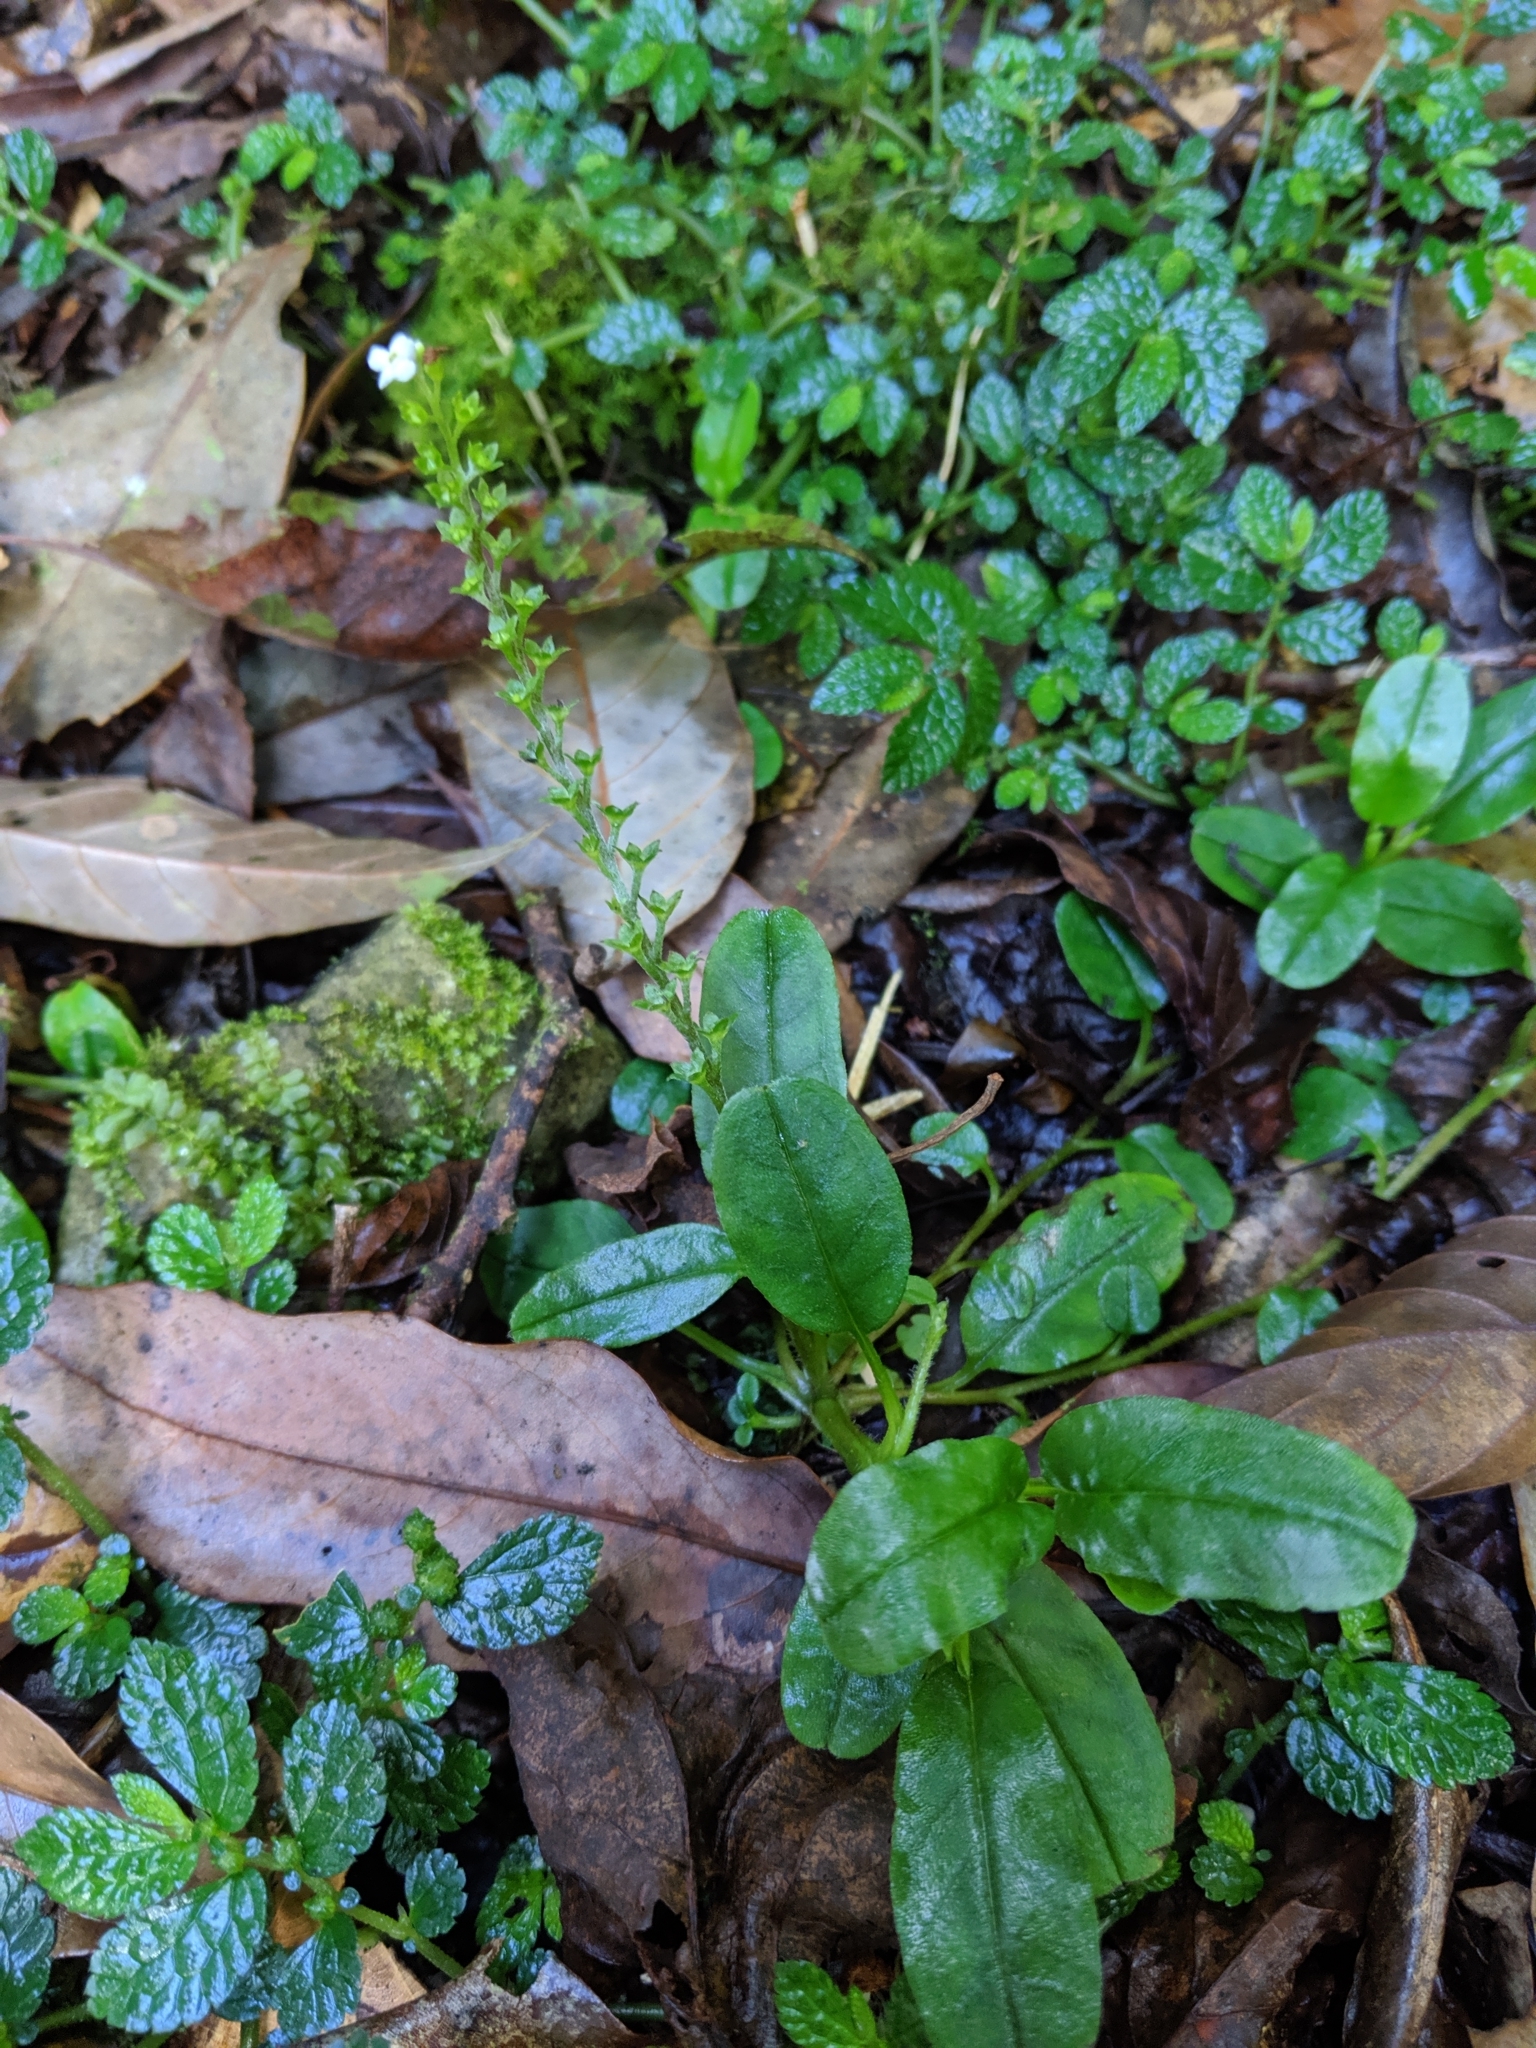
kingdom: Plantae
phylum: Tracheophyta
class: Magnoliopsida
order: Boraginales
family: Boraginaceae
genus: Trigonotis
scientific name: Trigonotis formosana
